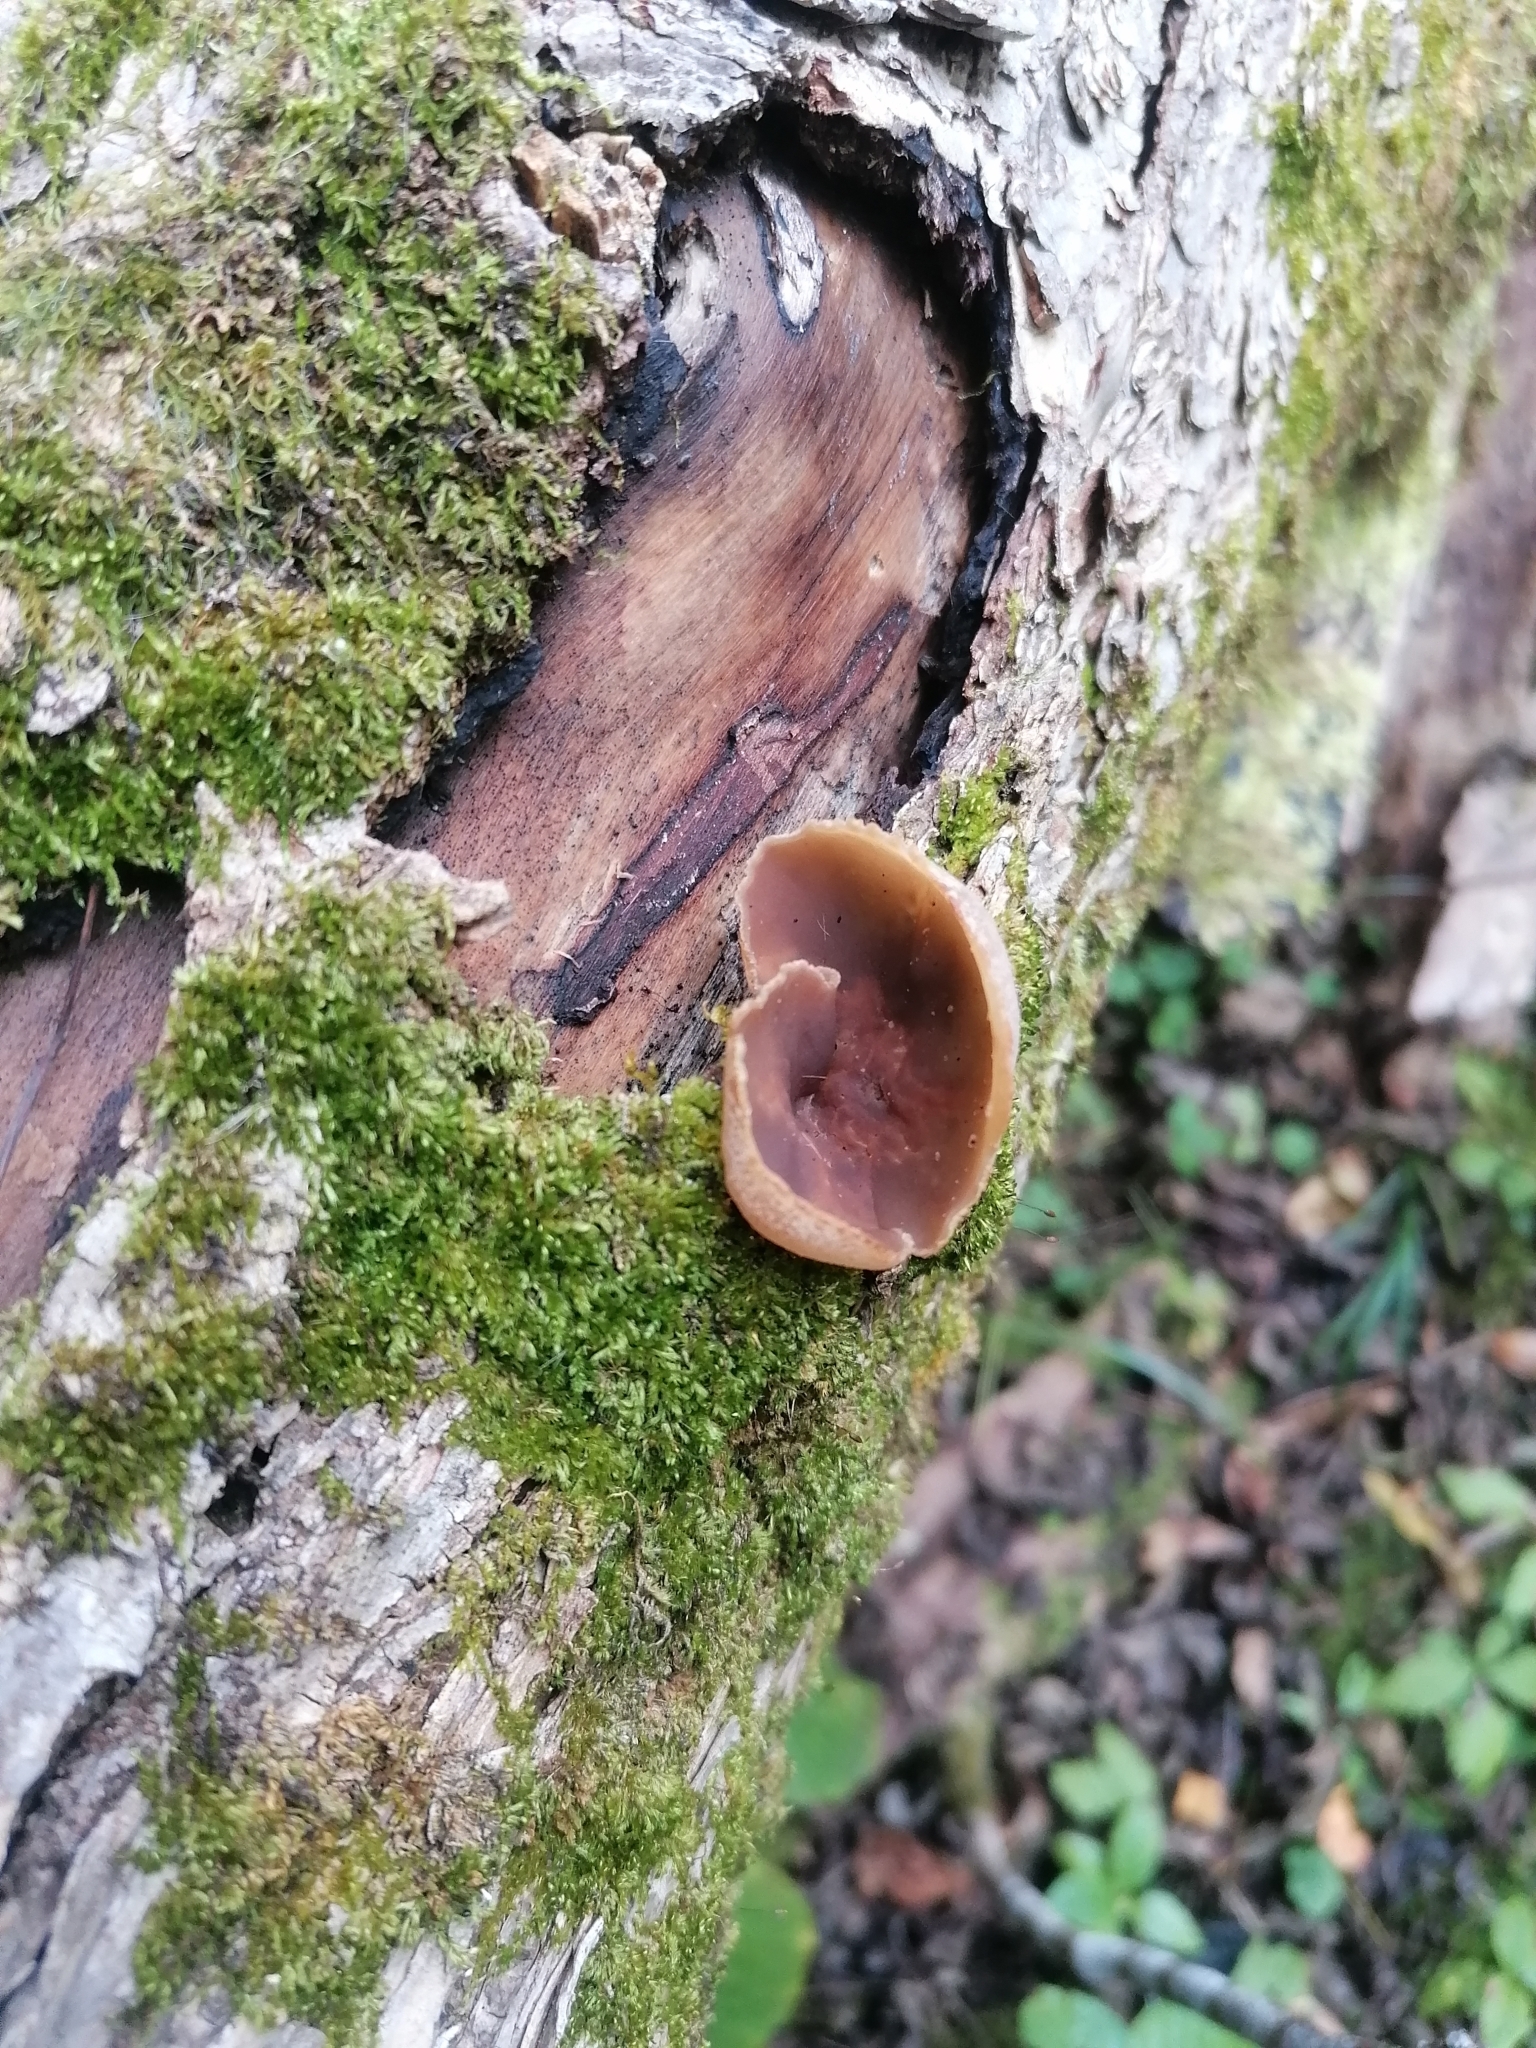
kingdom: Fungi
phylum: Ascomycota
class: Pezizomycetes
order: Pezizales
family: Pezizaceae
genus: Peziza
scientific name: Peziza varia
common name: Layered cup
